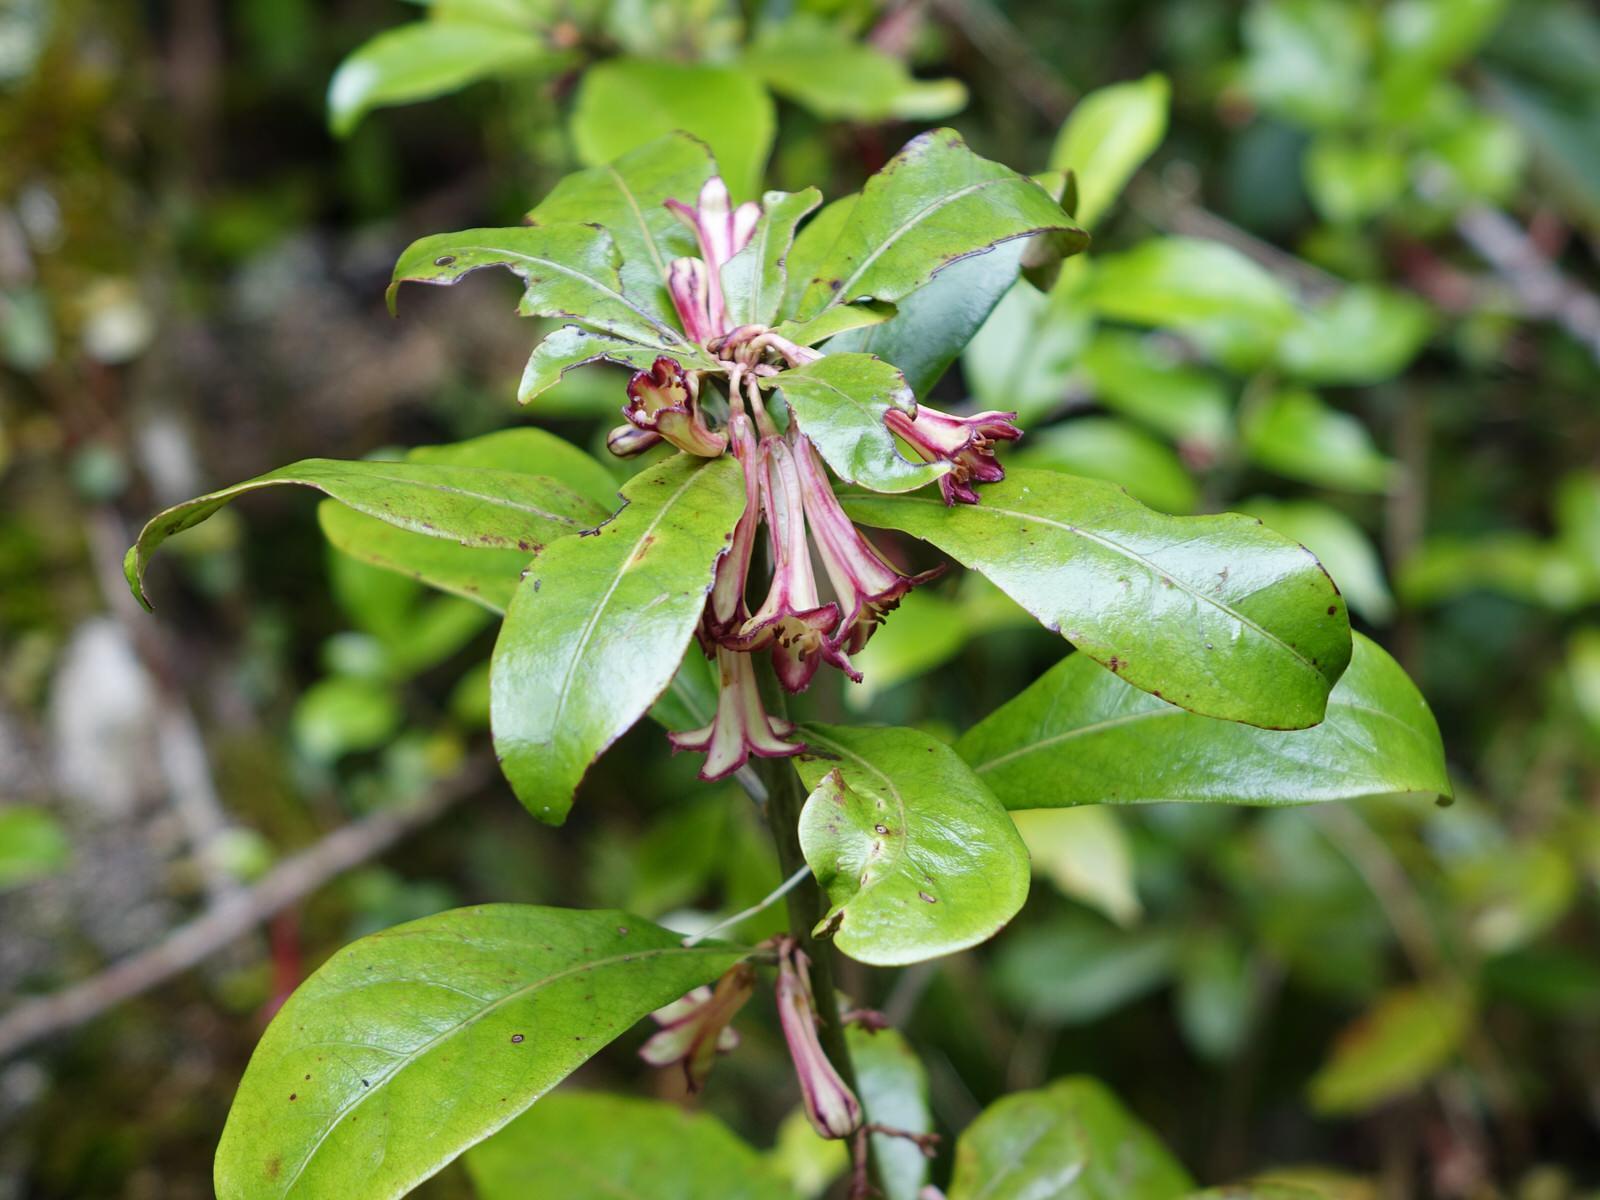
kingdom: Plantae
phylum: Tracheophyta
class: Magnoliopsida
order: Asterales
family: Alseuosmiaceae
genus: Alseuosmia
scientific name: Alseuosmia macrophylla
